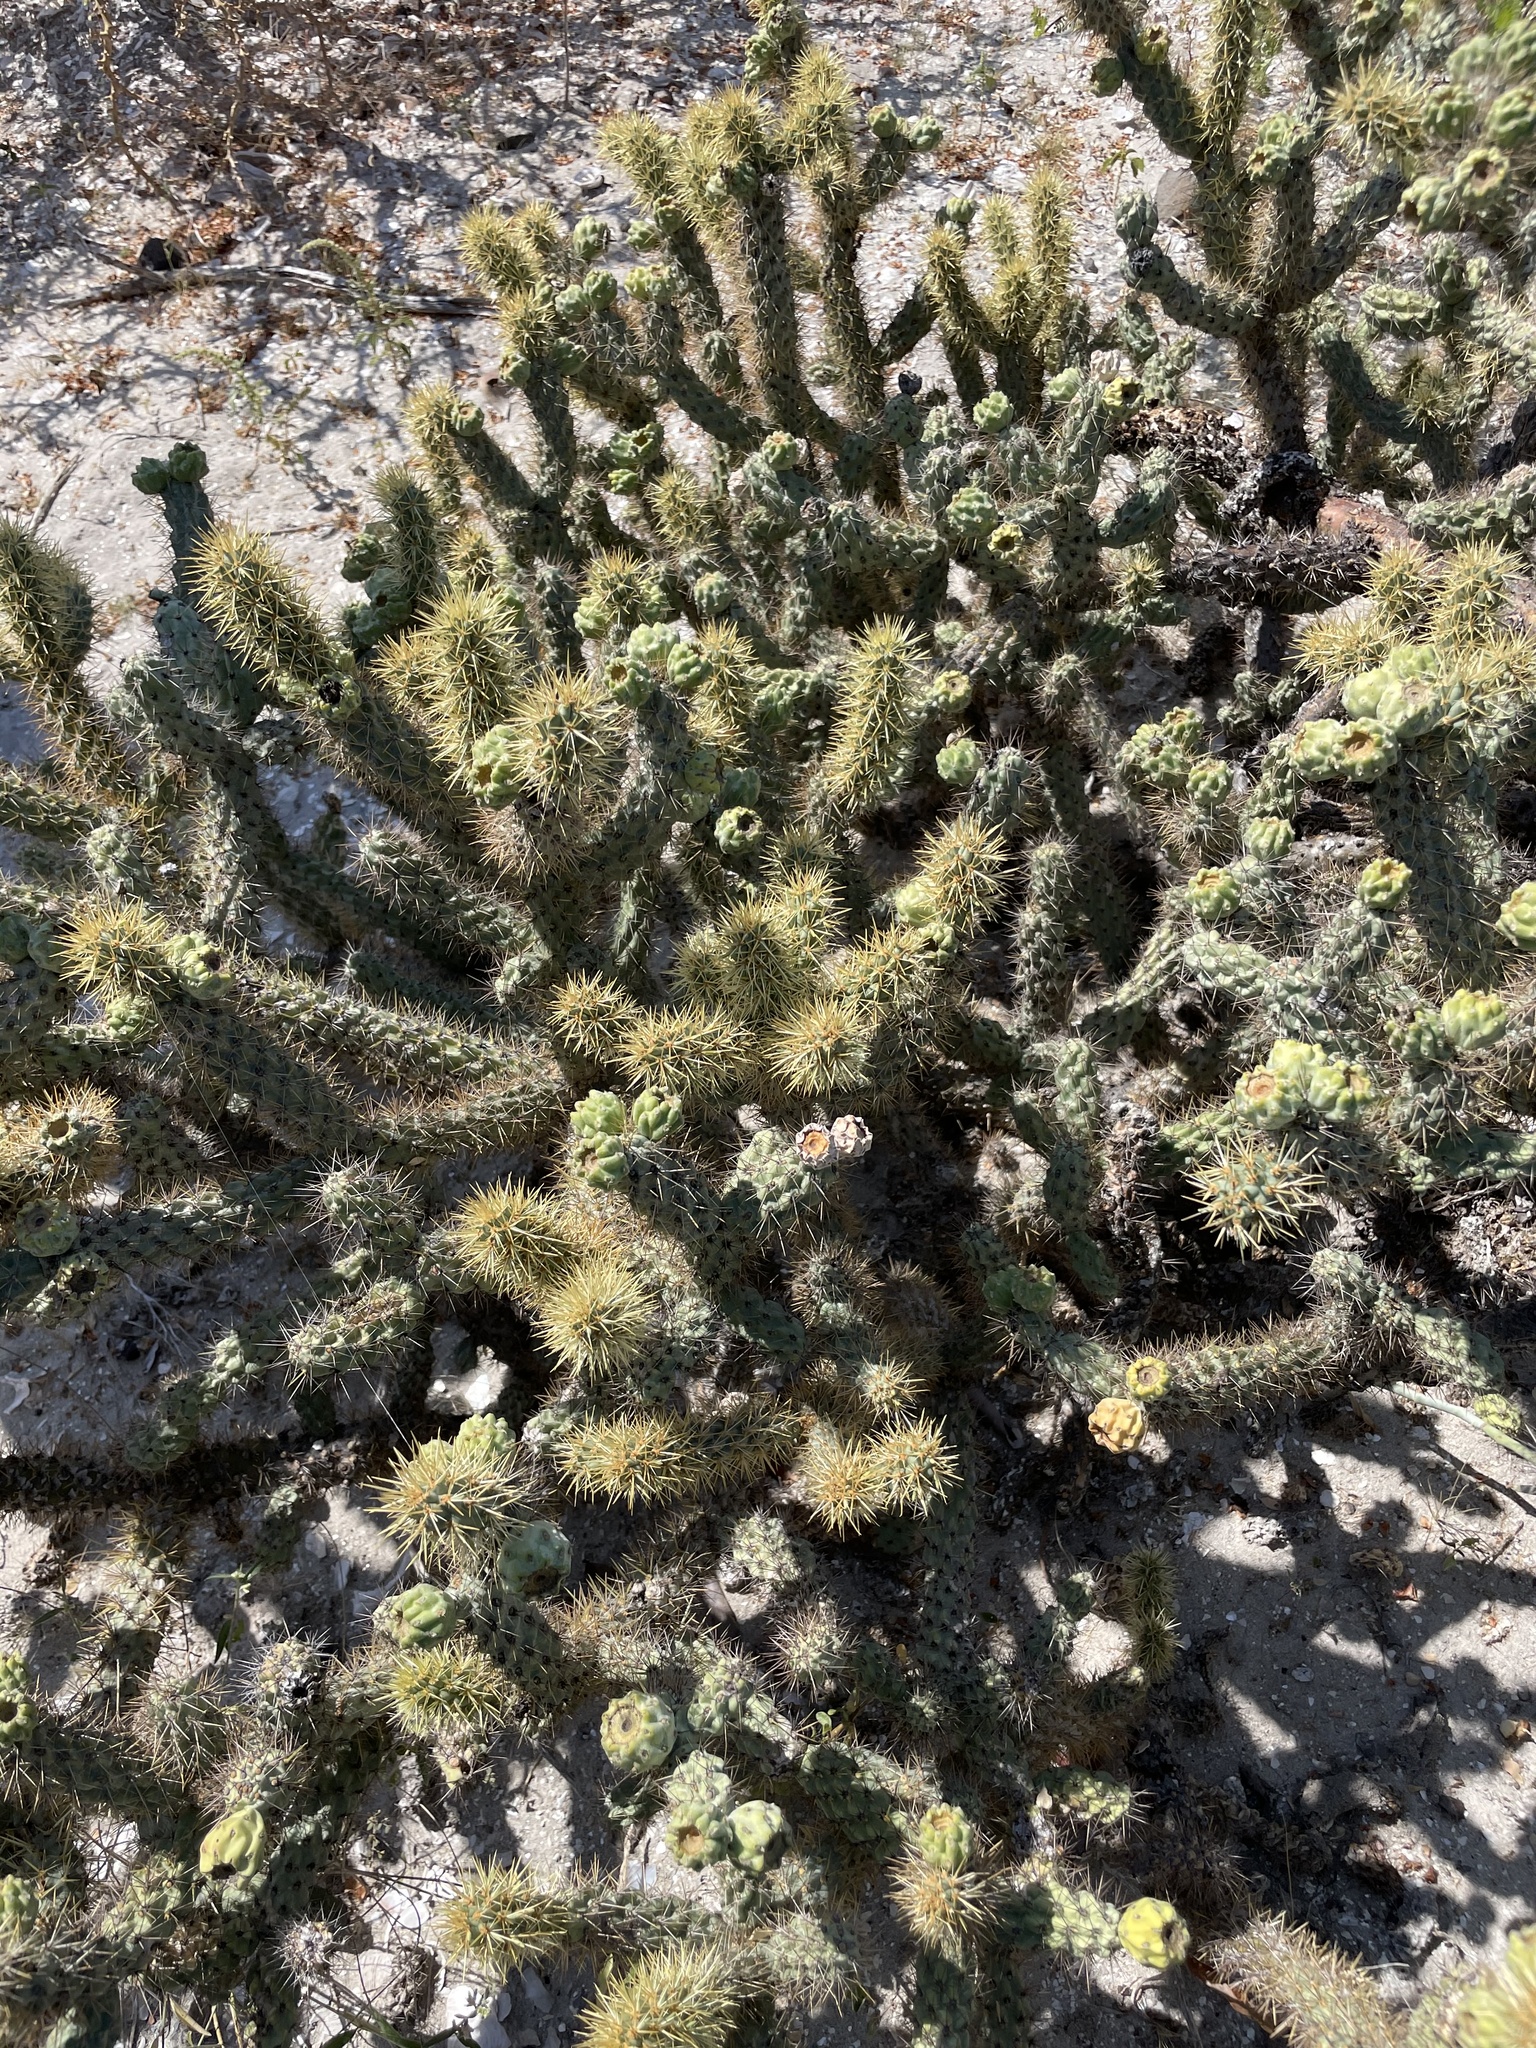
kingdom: Plantae
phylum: Tracheophyta
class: Magnoliopsida
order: Caryophyllales
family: Cactaceae
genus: Cylindropuntia
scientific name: Cylindropuntia alcahes
